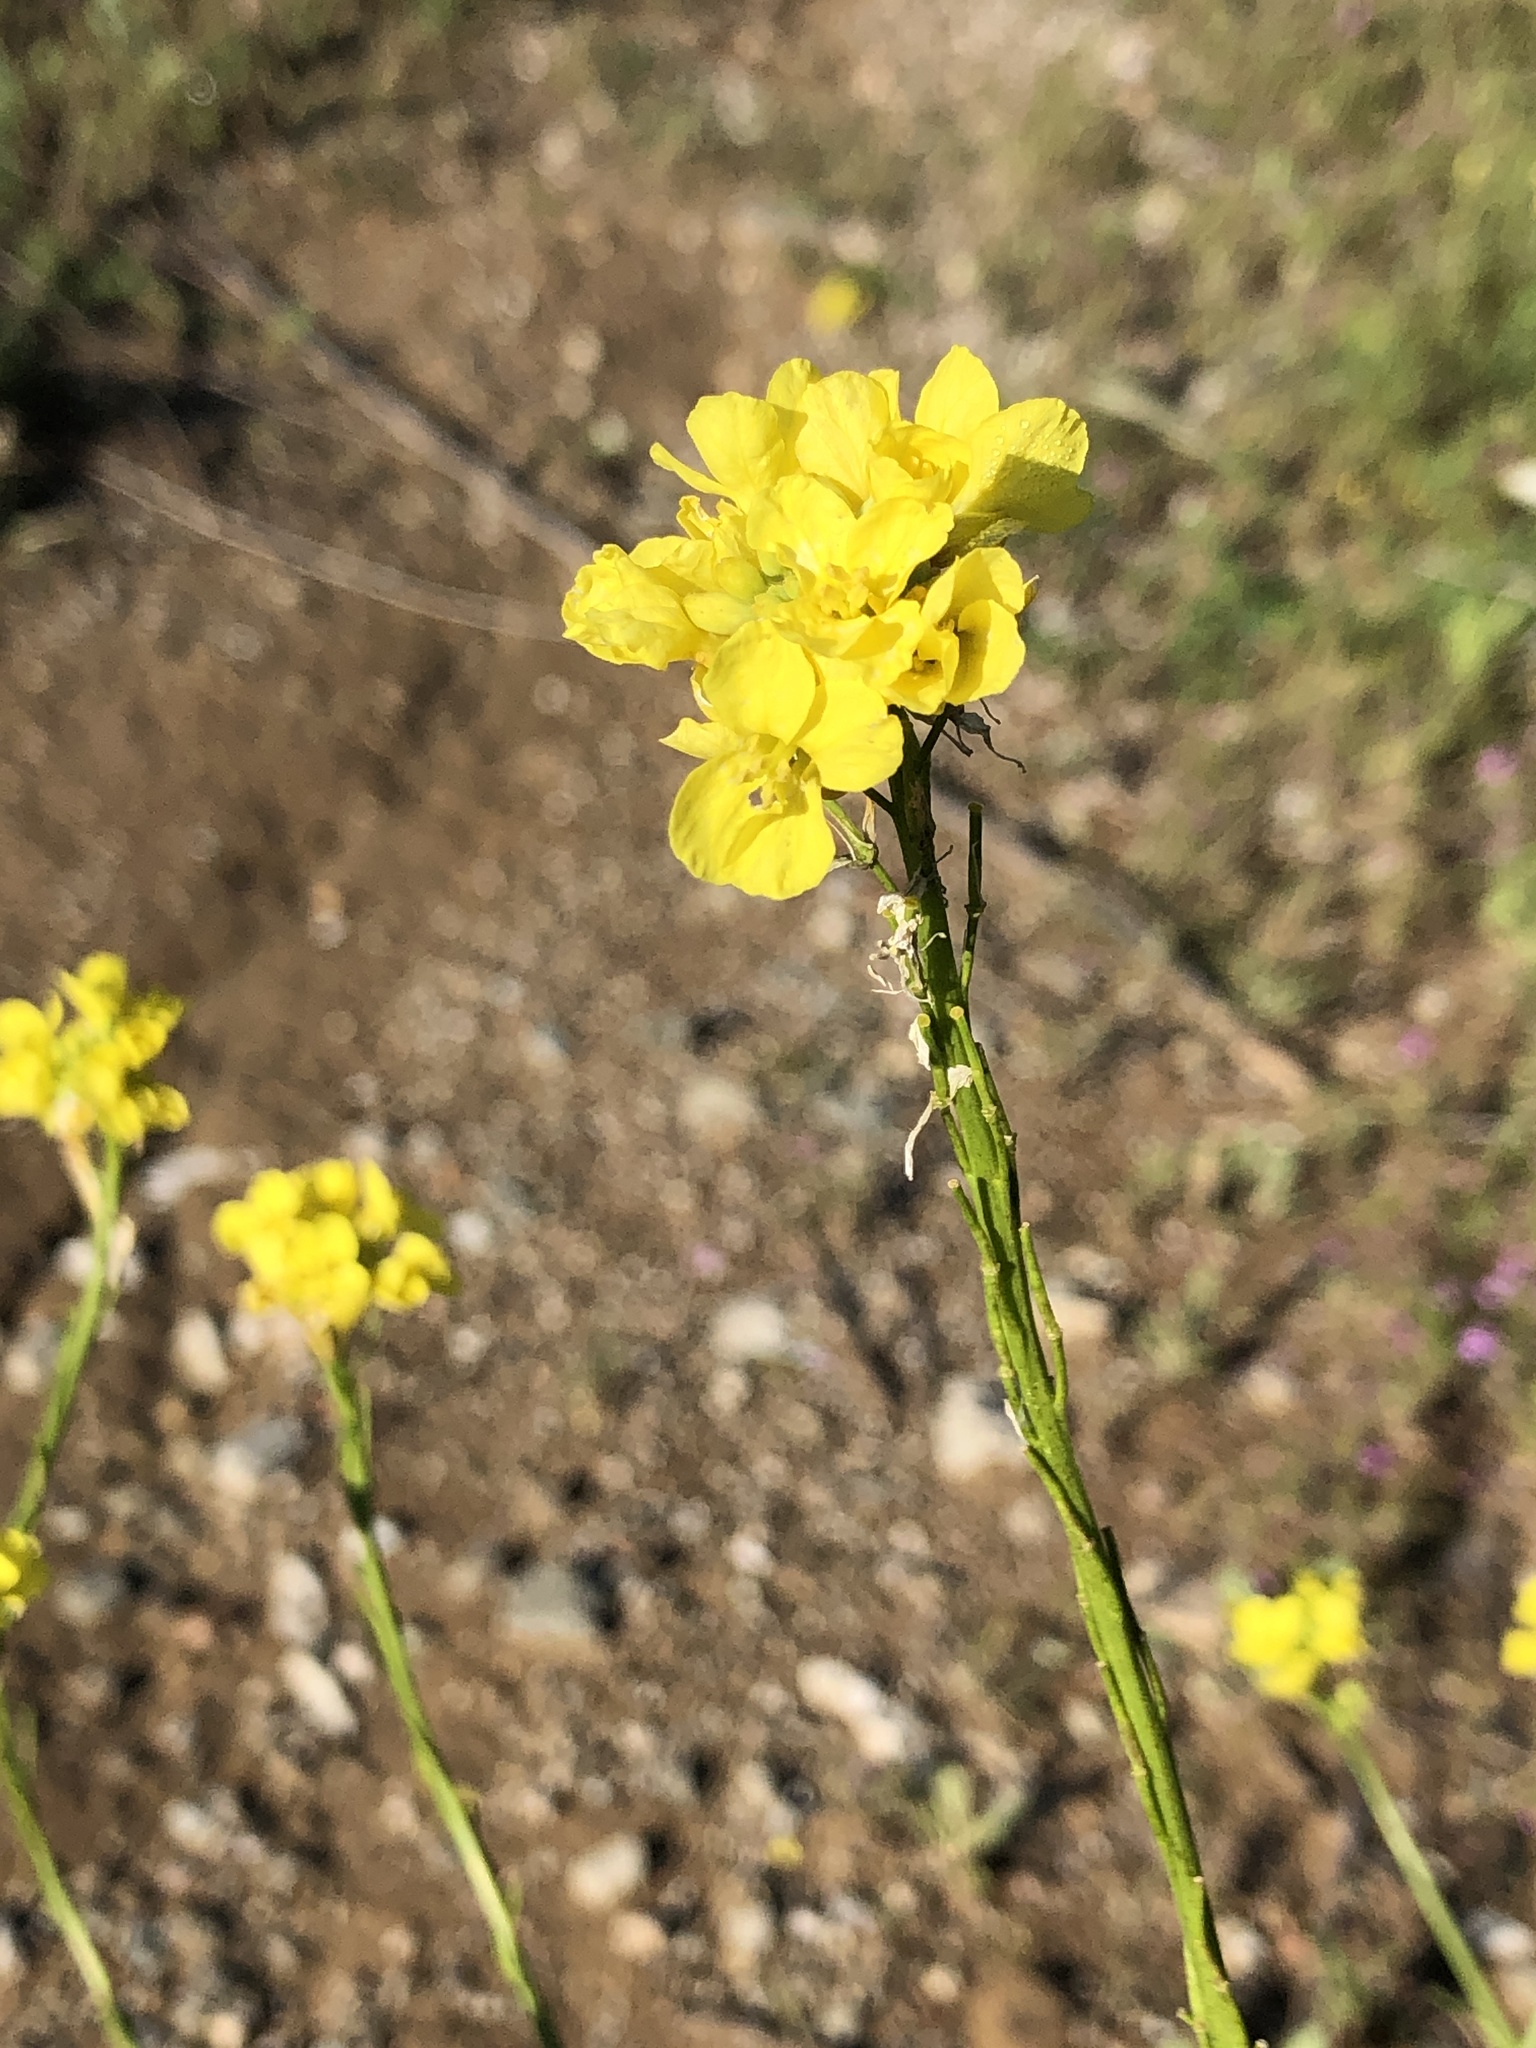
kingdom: Plantae
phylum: Tracheophyta
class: Magnoliopsida
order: Brassicales
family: Brassicaceae
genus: Hirschfeldia
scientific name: Hirschfeldia incana
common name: Hoary mustard
